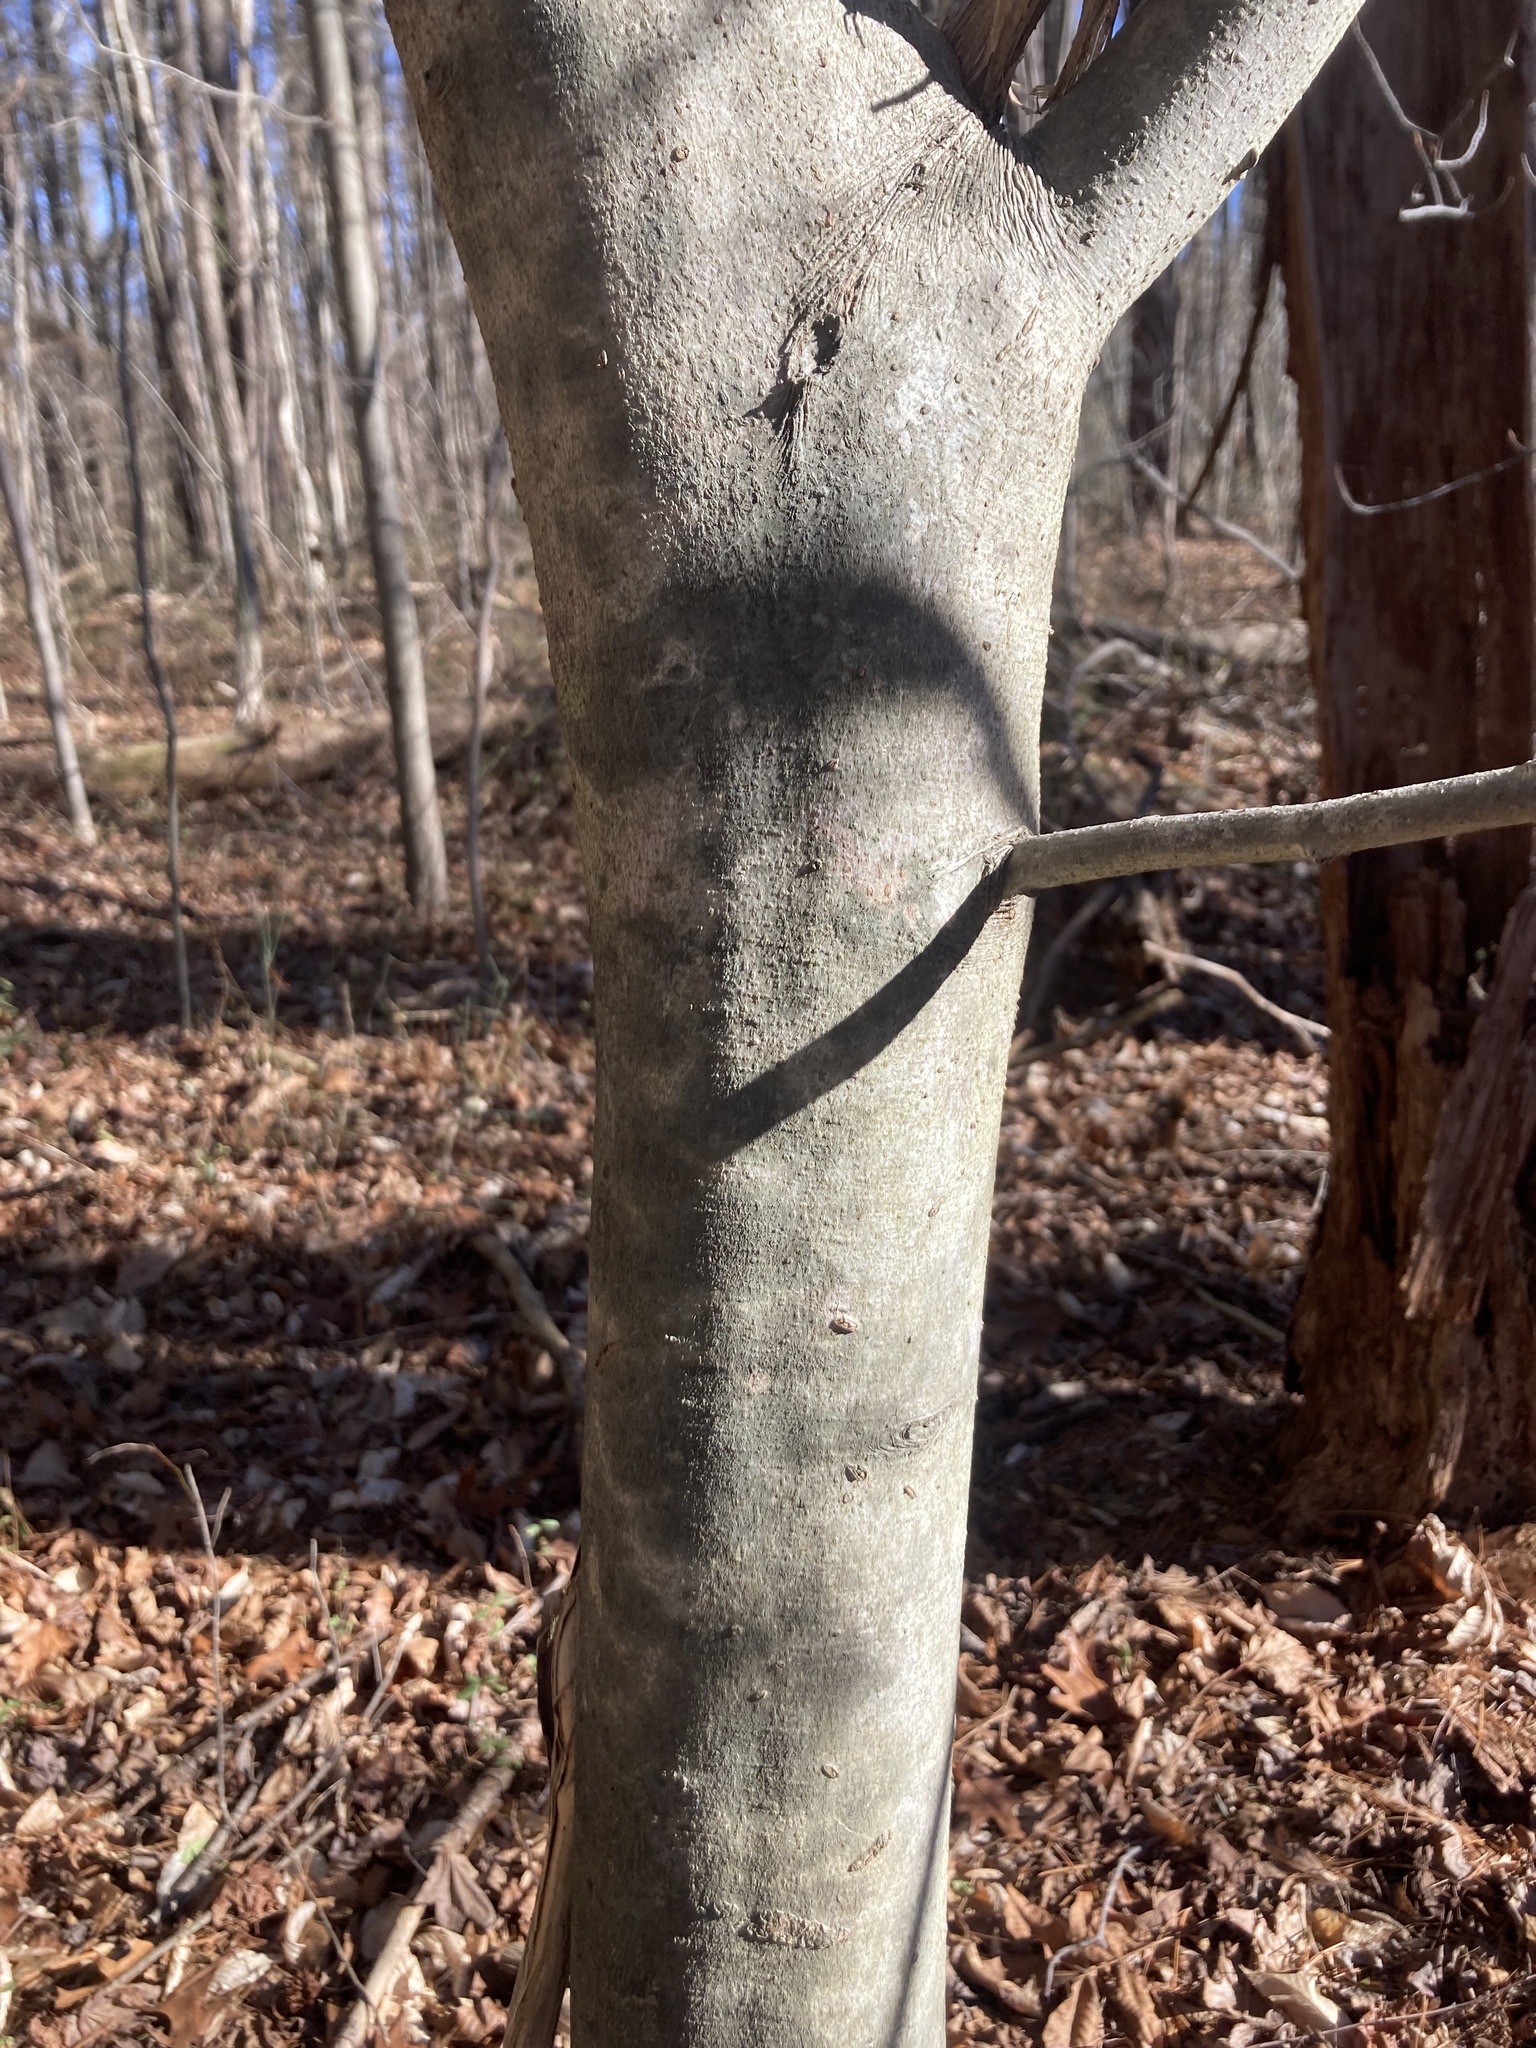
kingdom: Plantae
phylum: Tracheophyta
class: Magnoliopsida
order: Fagales
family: Fagaceae
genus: Fagus
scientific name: Fagus grandifolia
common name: American beech
